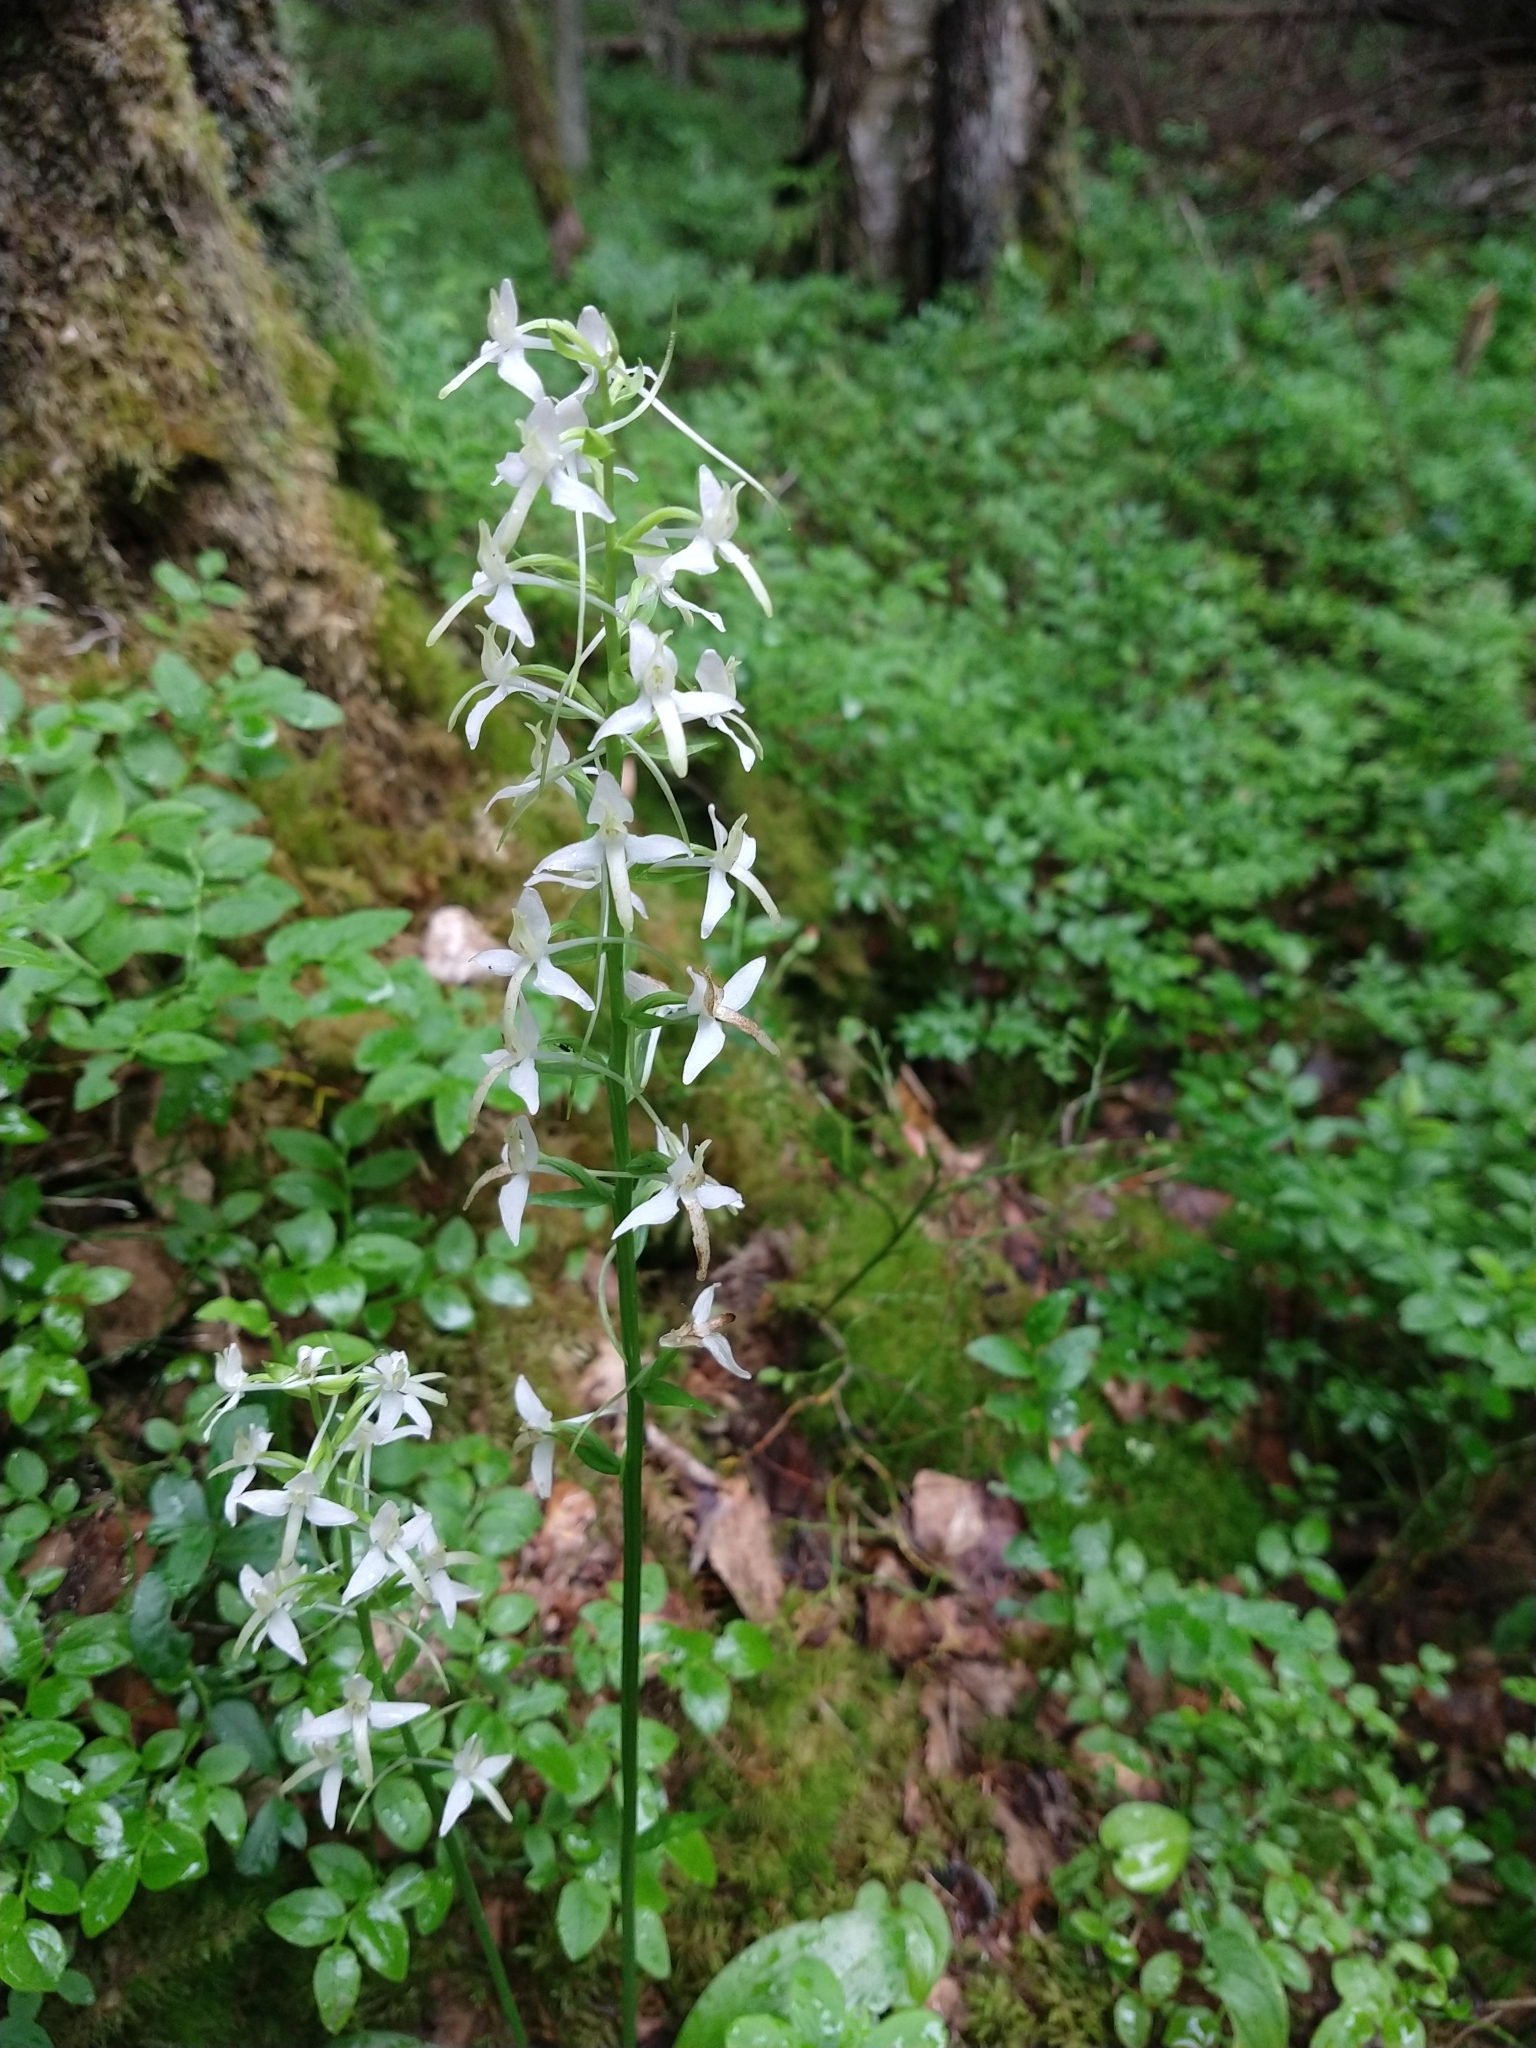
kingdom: Plantae
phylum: Tracheophyta
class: Liliopsida
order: Asparagales
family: Orchidaceae
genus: Platanthera
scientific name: Platanthera bifolia
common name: Lesser butterfly-orchid
